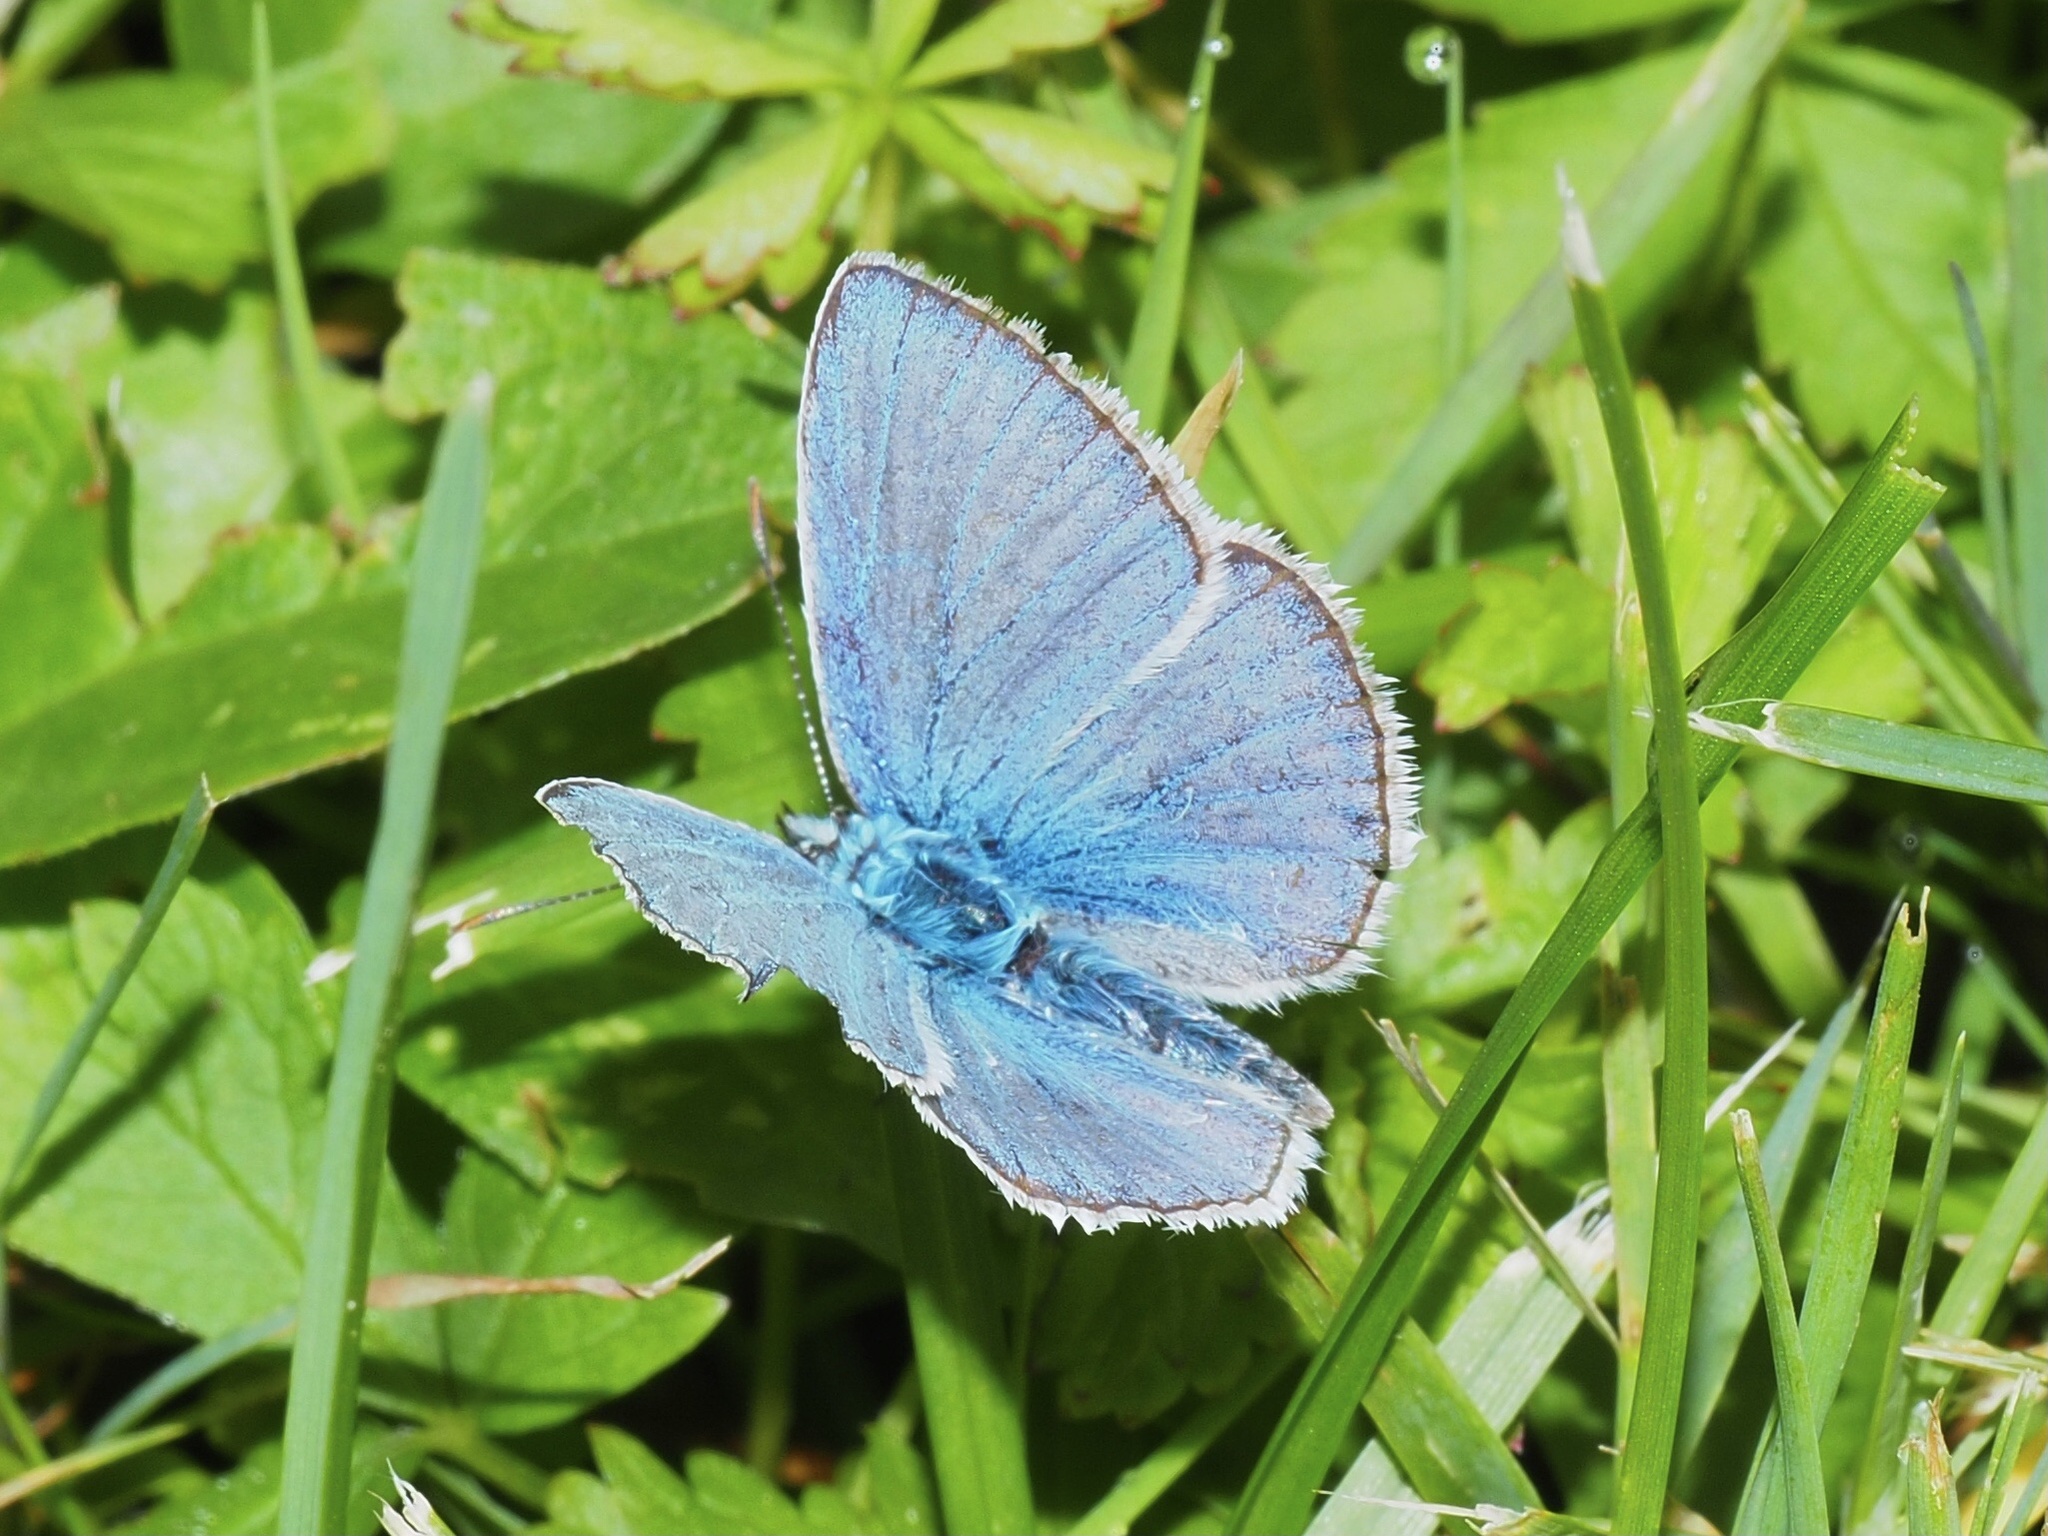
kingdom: Animalia
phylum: Arthropoda
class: Insecta
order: Lepidoptera
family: Lycaenidae
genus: Polyommatus
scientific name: Polyommatus icarus
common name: Common blue
